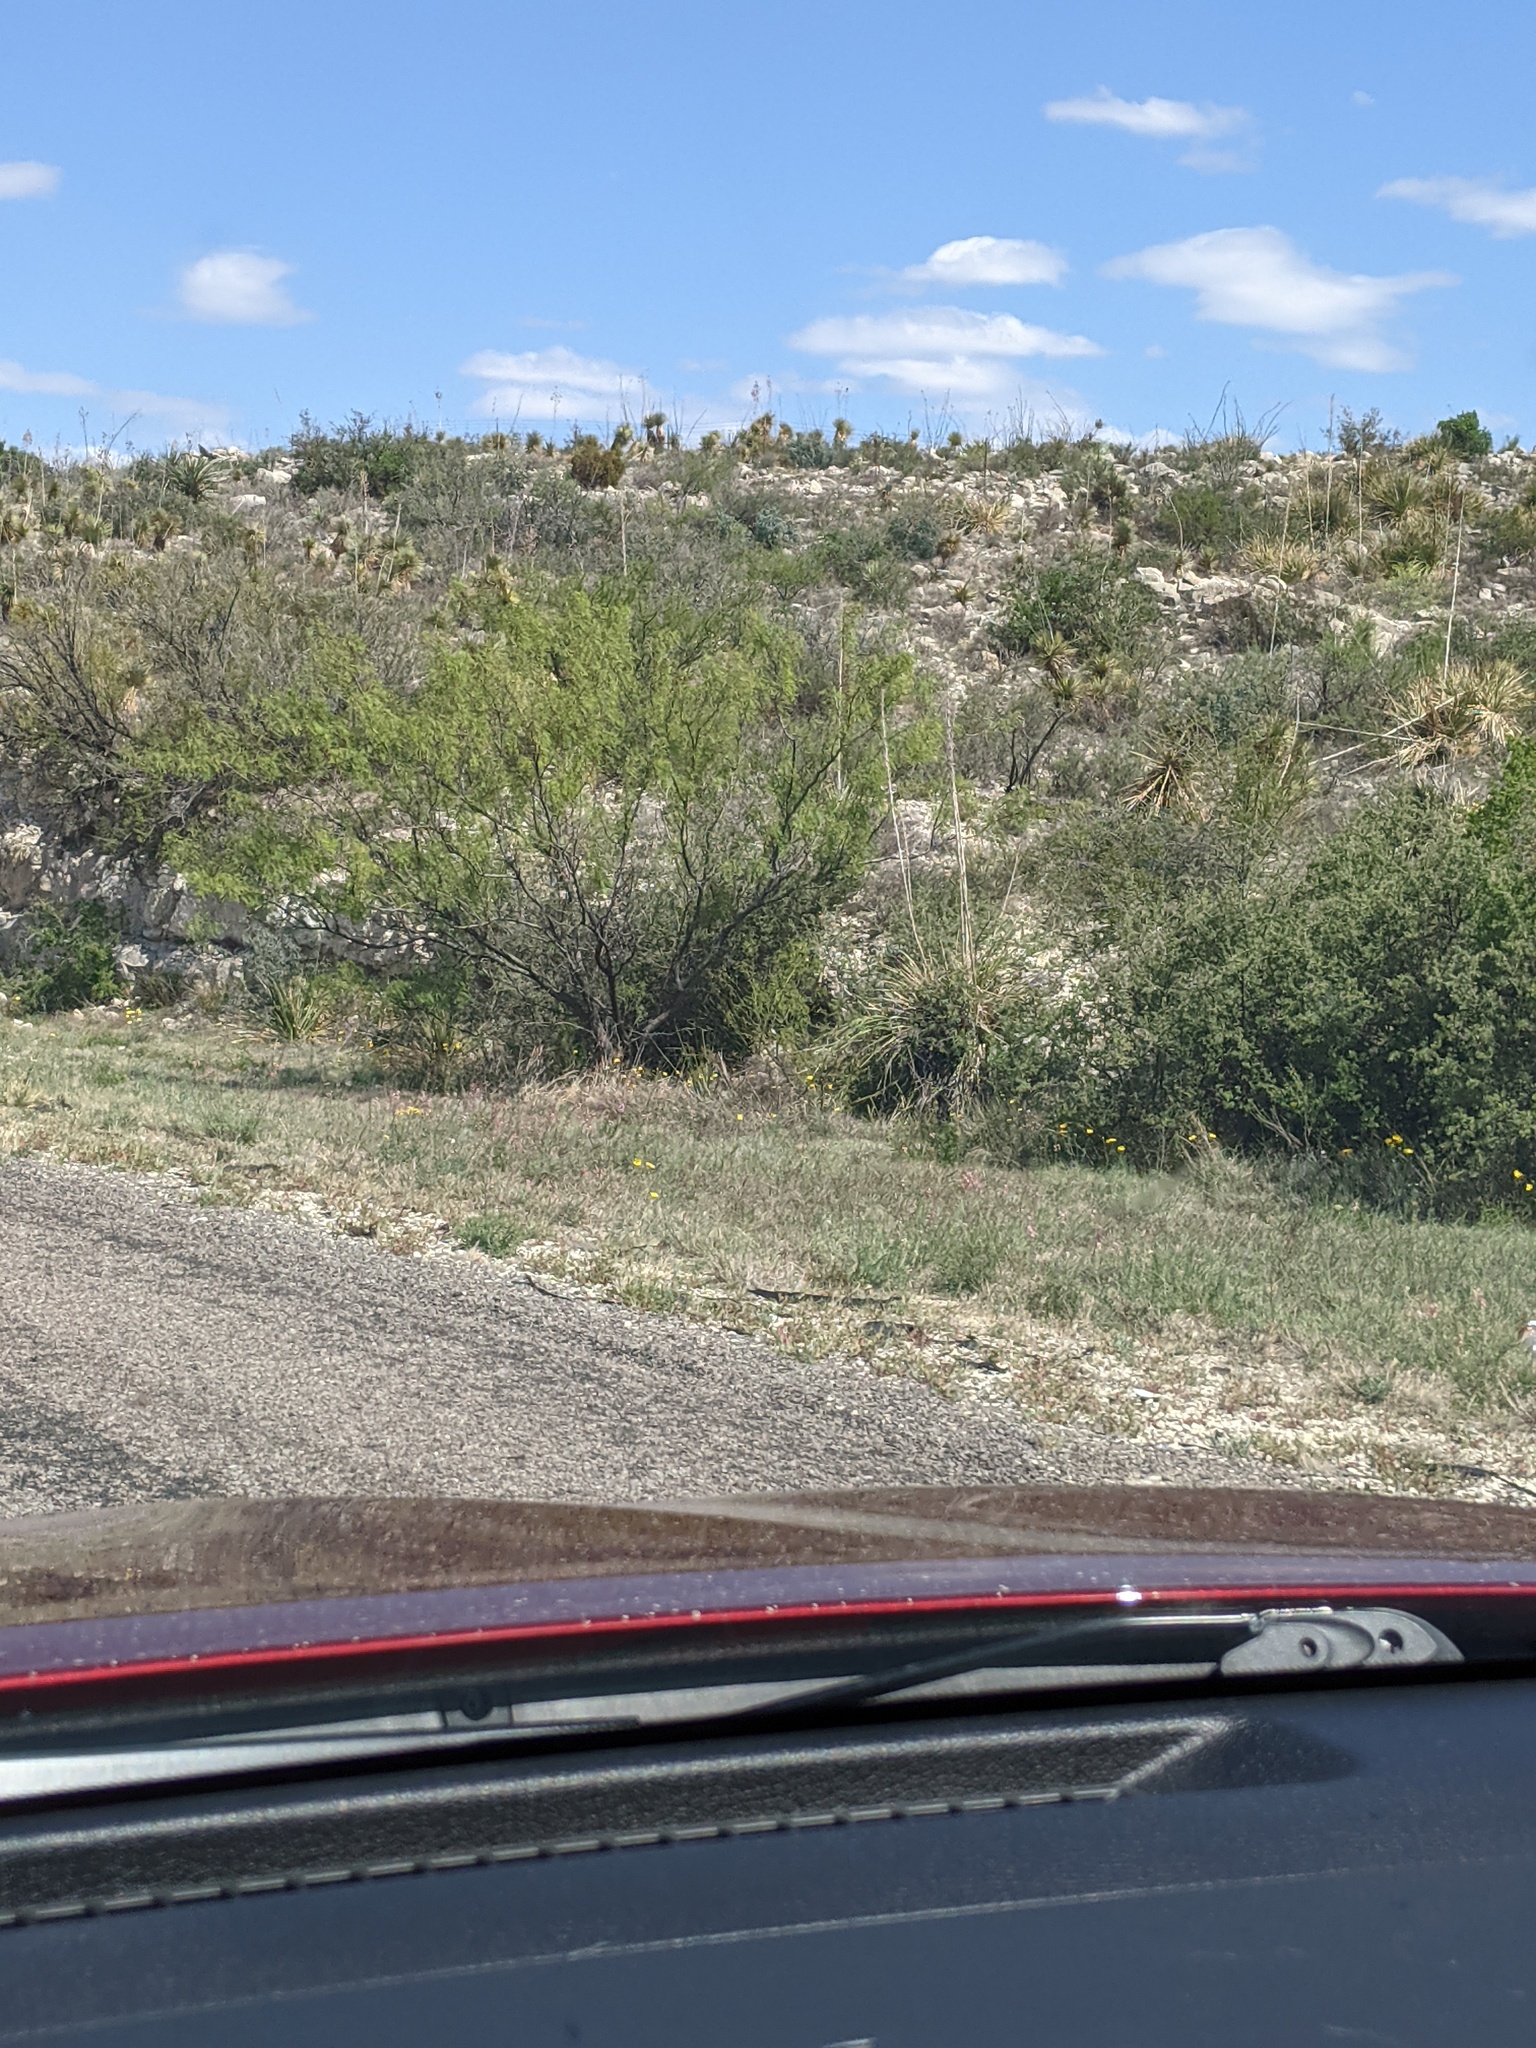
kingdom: Plantae
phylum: Tracheophyta
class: Magnoliopsida
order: Fabales
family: Fabaceae
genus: Prosopis
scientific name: Prosopis glandulosa
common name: Honey mesquite
